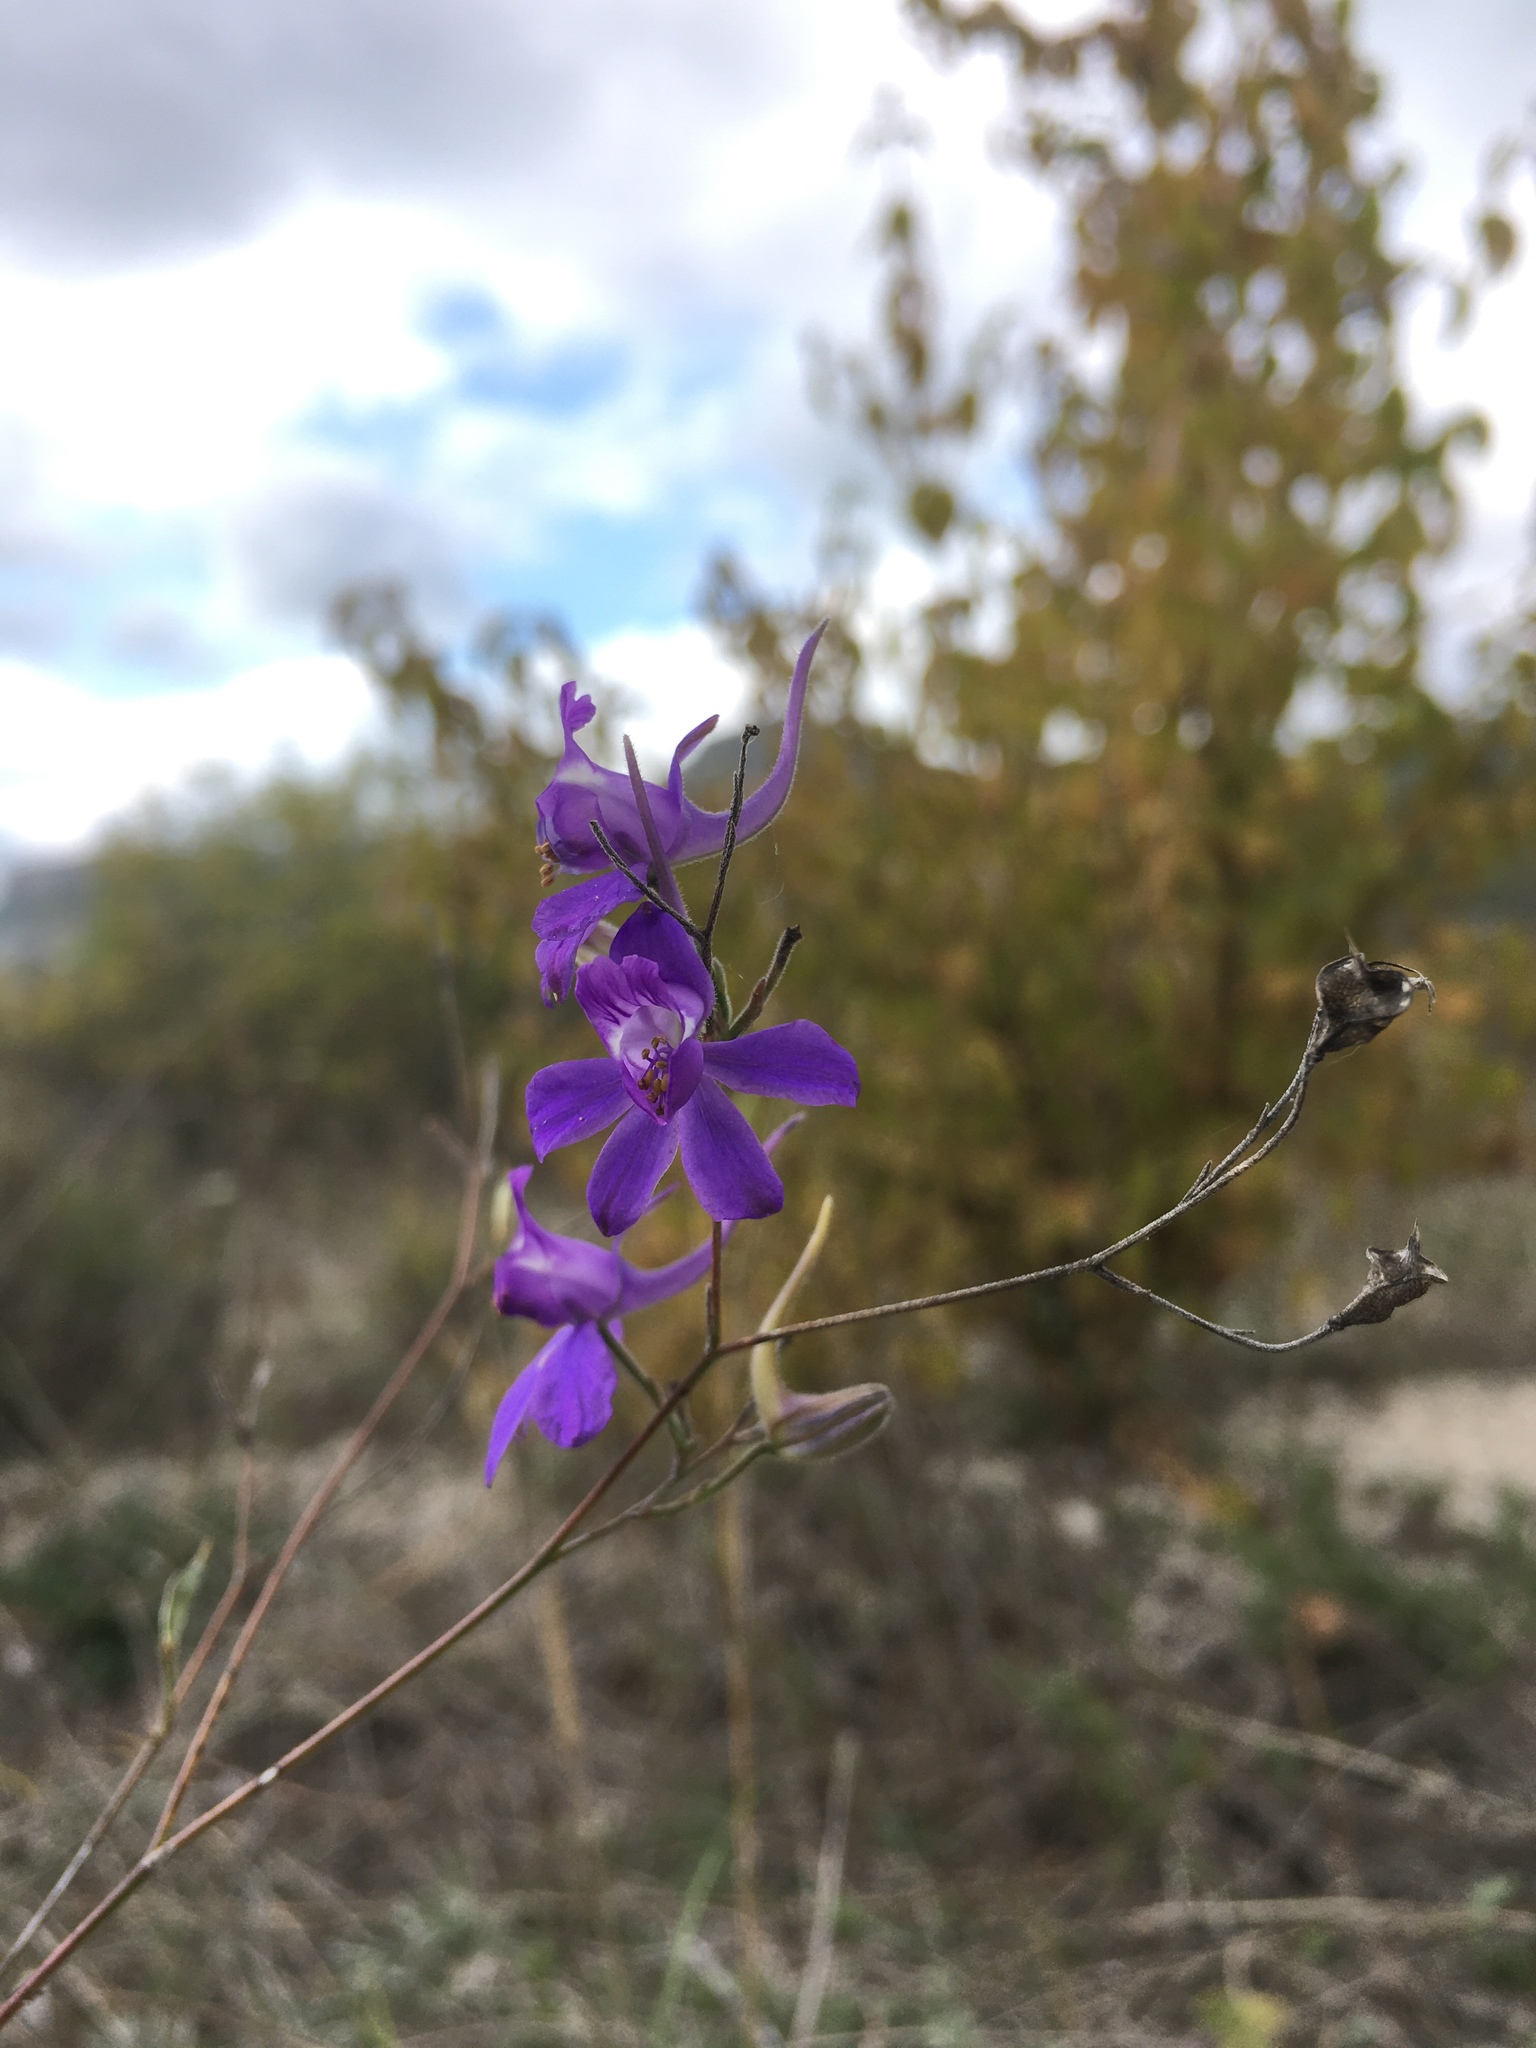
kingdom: Plantae
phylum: Tracheophyta
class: Magnoliopsida
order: Ranunculales
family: Ranunculaceae
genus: Delphinium
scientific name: Delphinium consolida
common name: Branching larkspur
